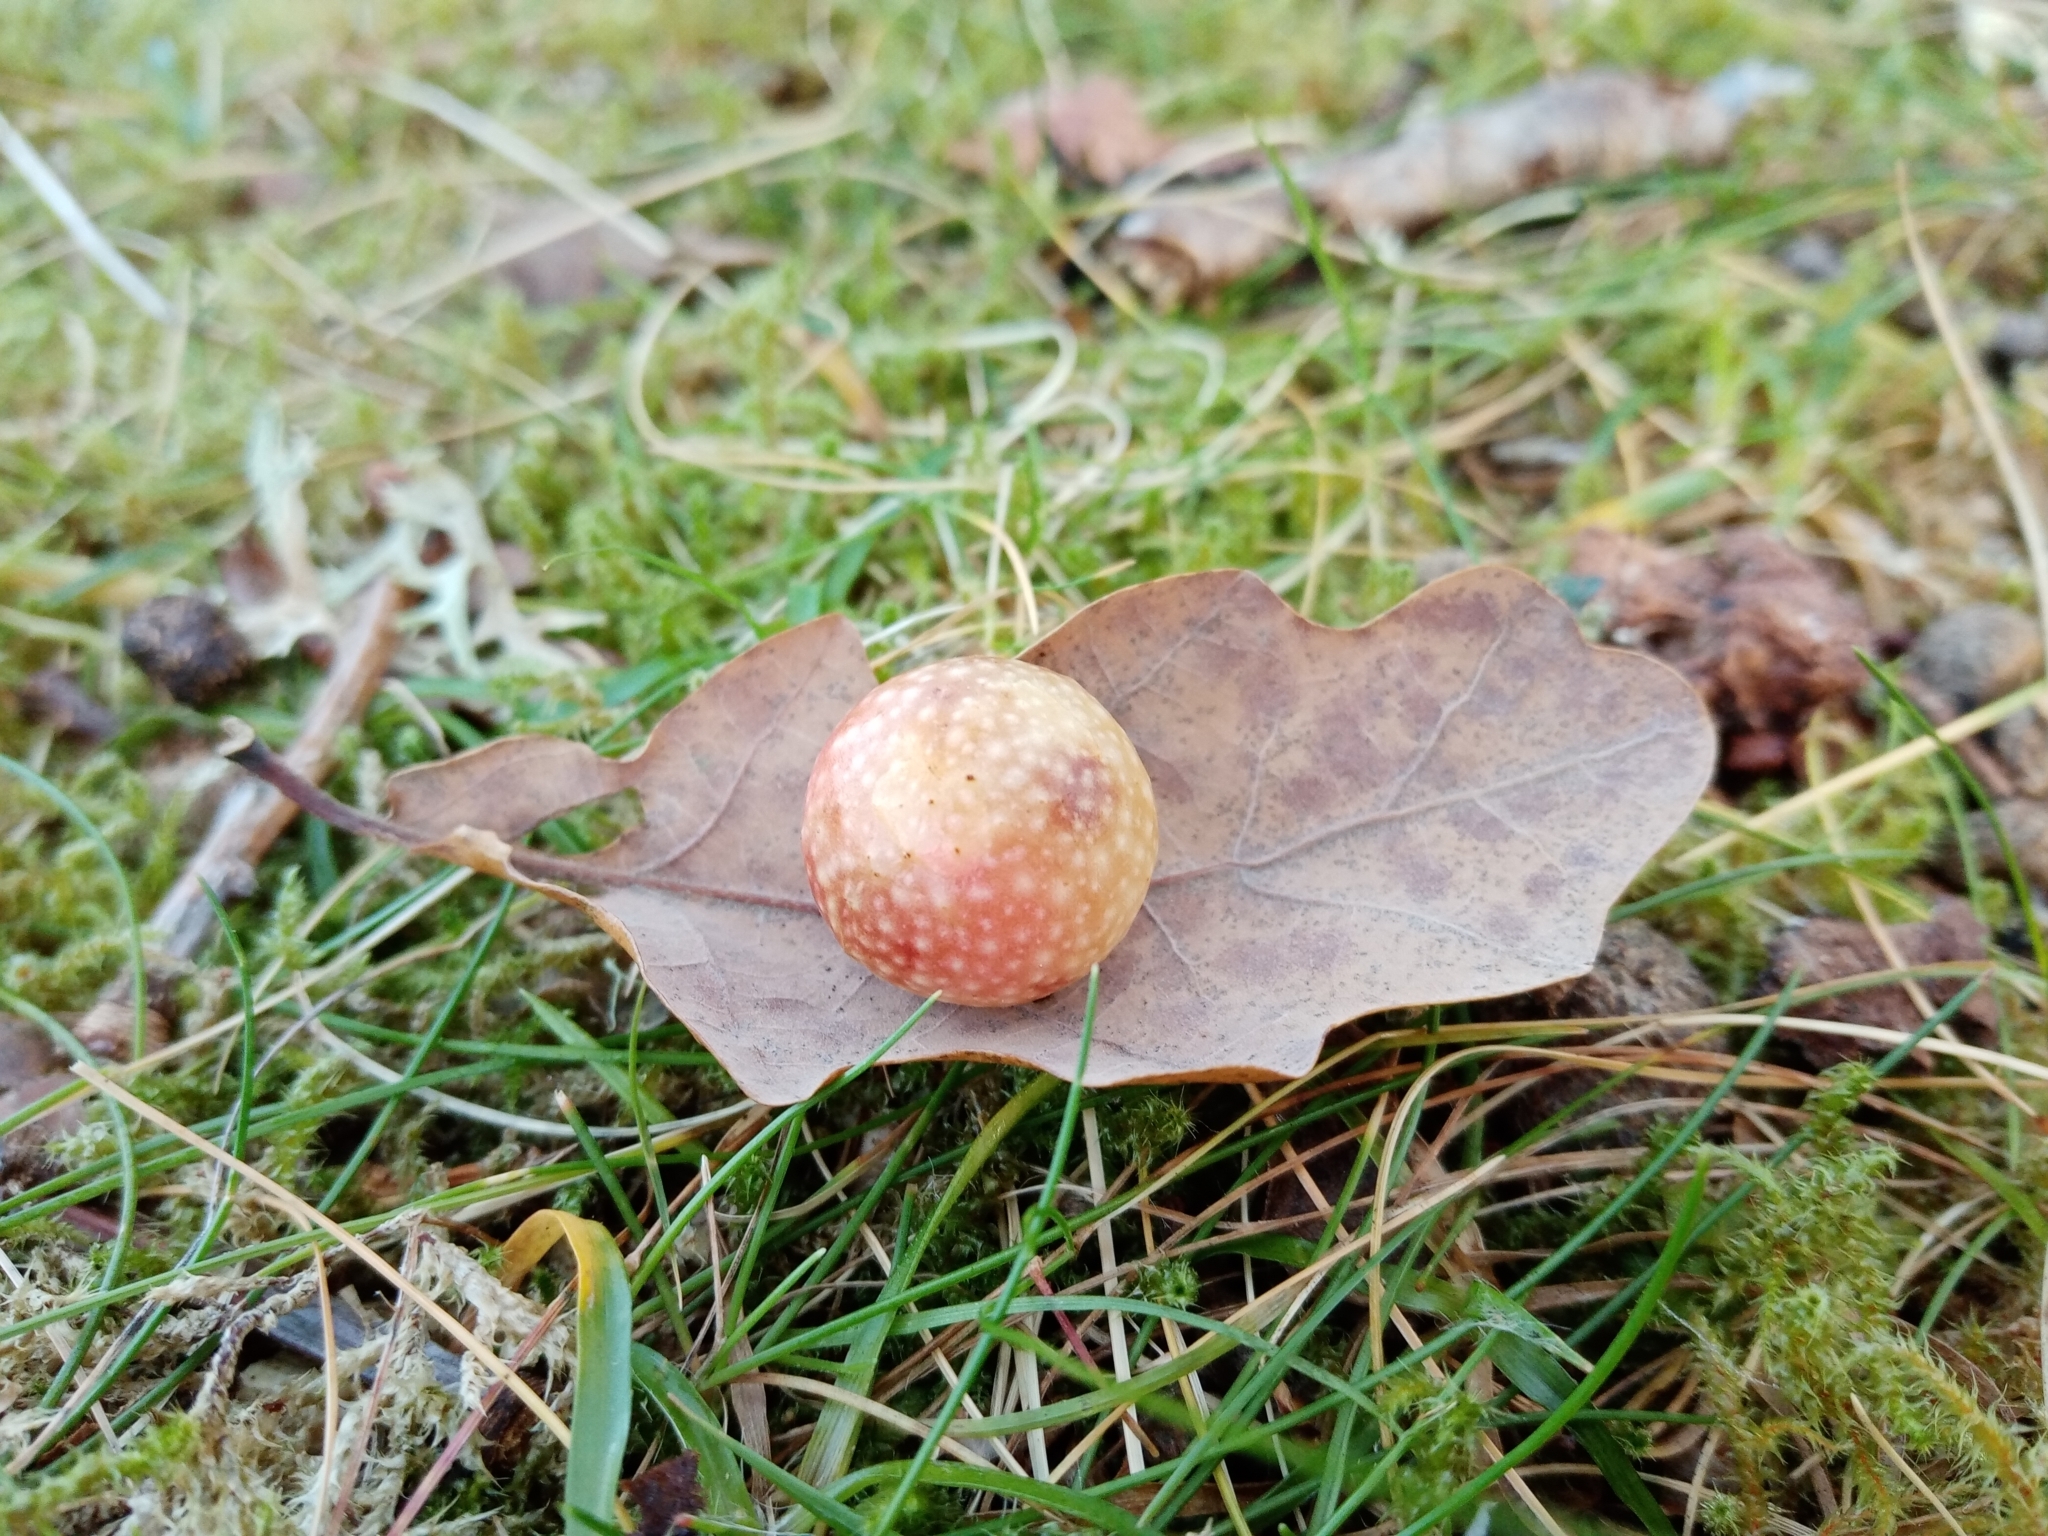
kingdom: Animalia
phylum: Arthropoda
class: Insecta
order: Hymenoptera
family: Cynipidae
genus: Cynips
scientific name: Cynips quercusfolii
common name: Cherry gall
